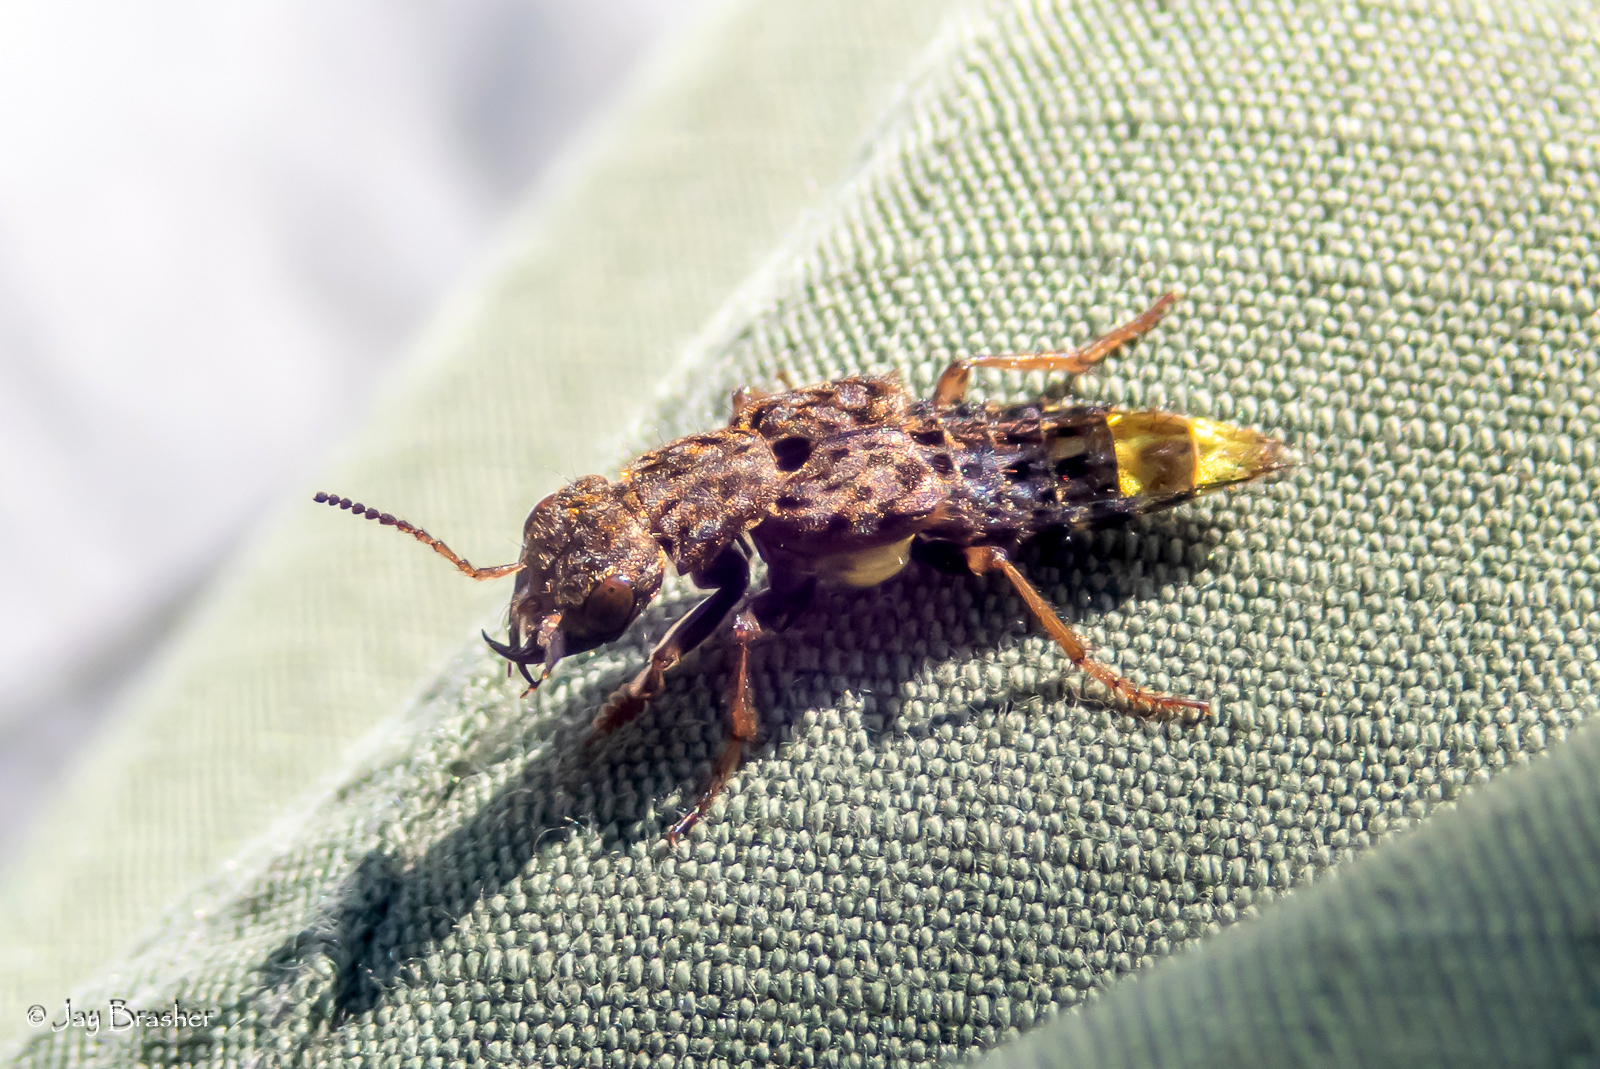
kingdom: Animalia
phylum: Arthropoda
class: Insecta
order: Coleoptera
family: Staphylinidae
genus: Ontholestes
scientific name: Ontholestes cingulatus
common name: Gold-and-brown rove beetle
